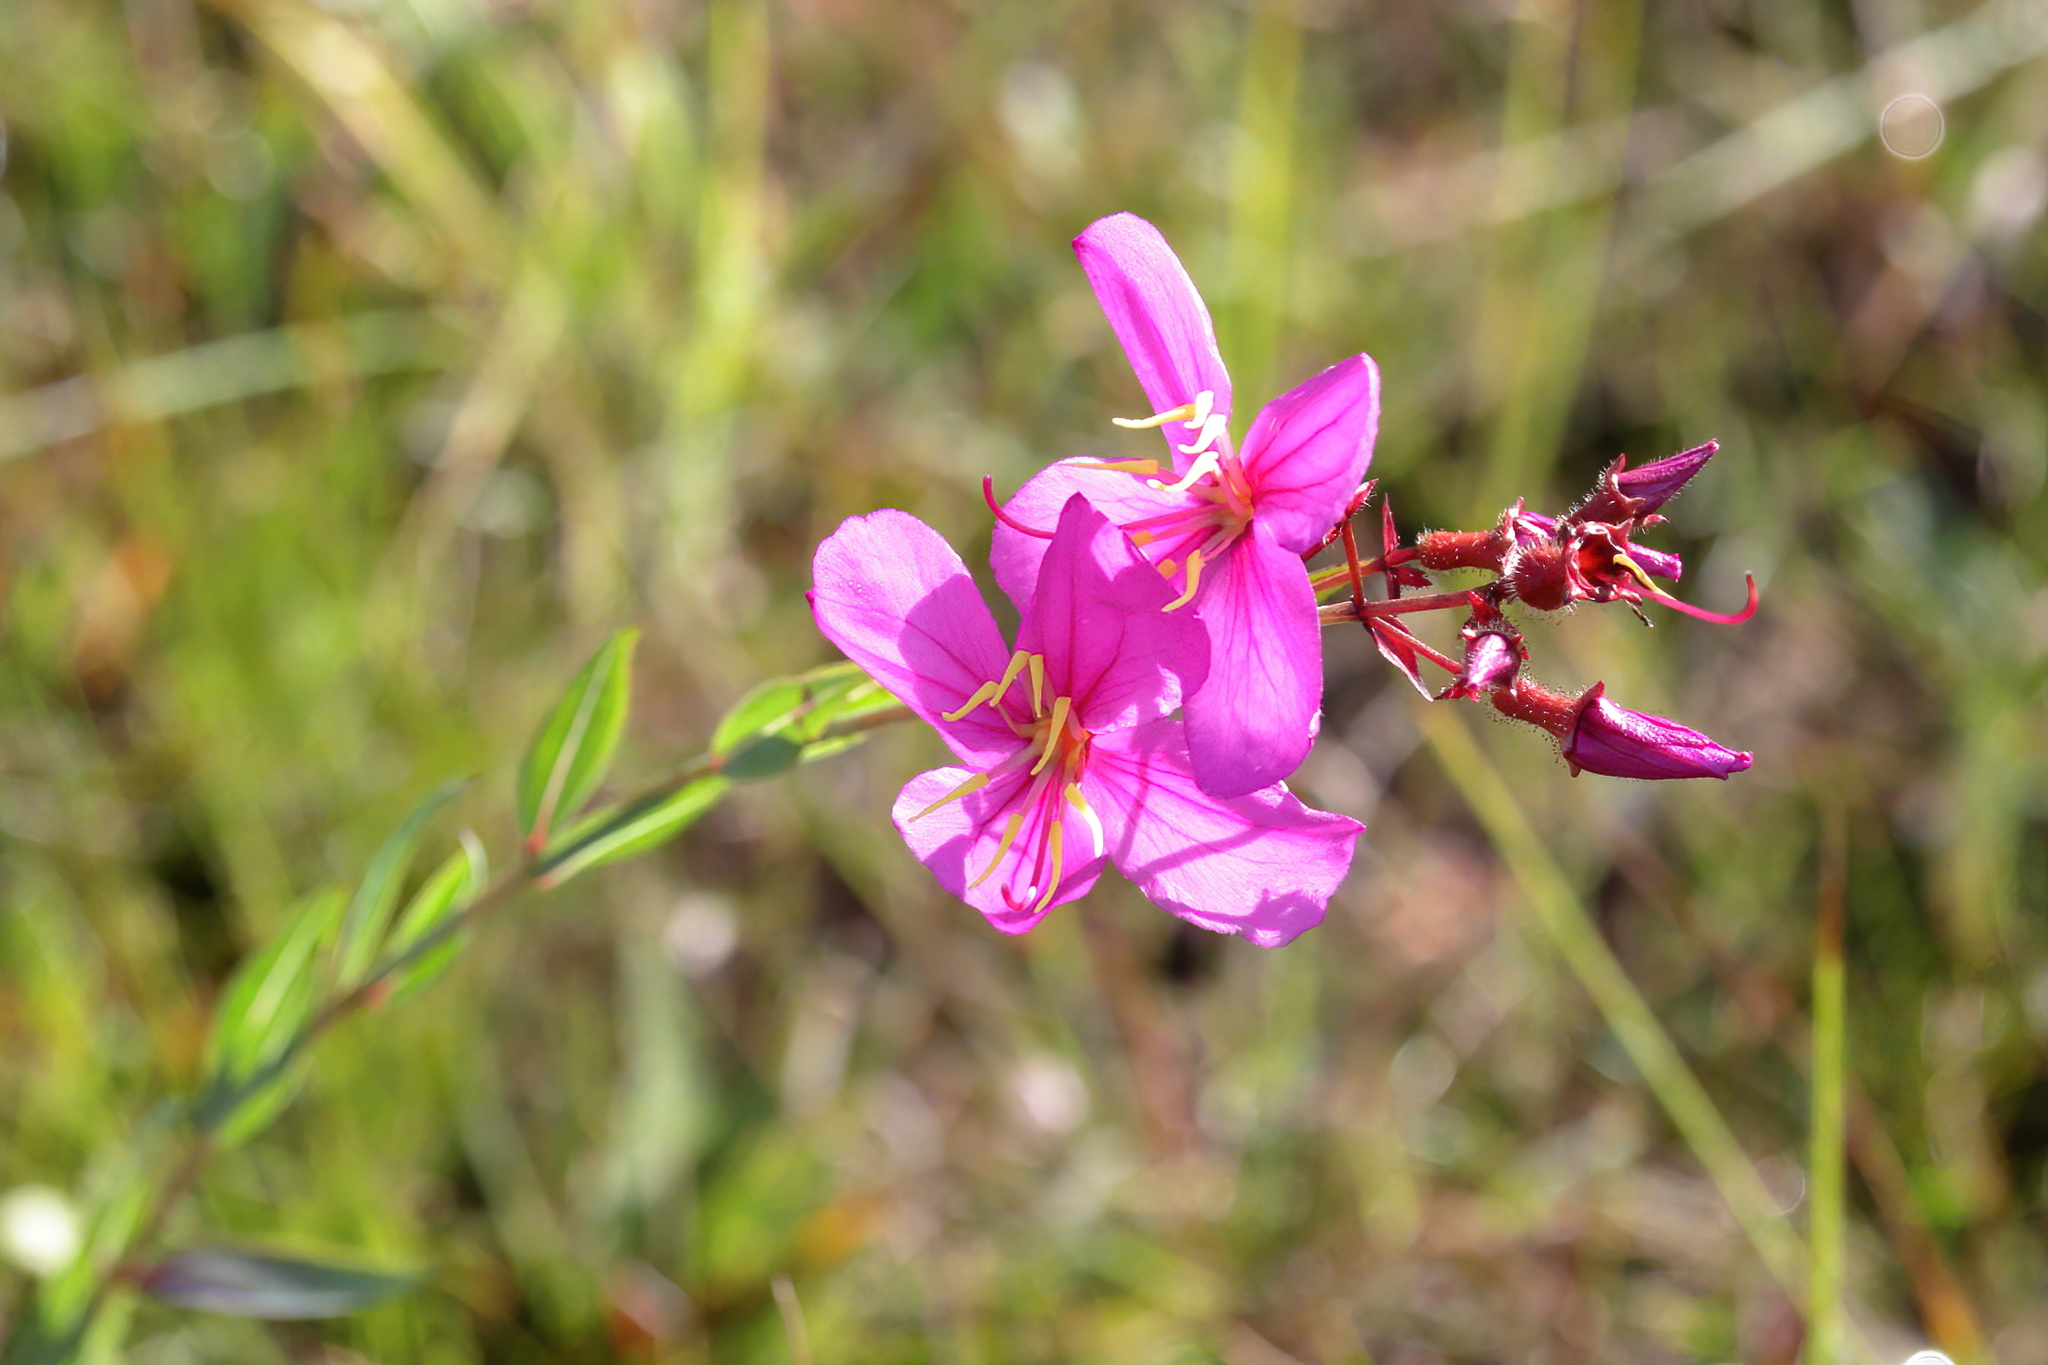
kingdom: Plantae
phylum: Tracheophyta
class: Magnoliopsida
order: Myrtales
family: Melastomataceae
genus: Rhexia
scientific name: Rhexia alifanus
